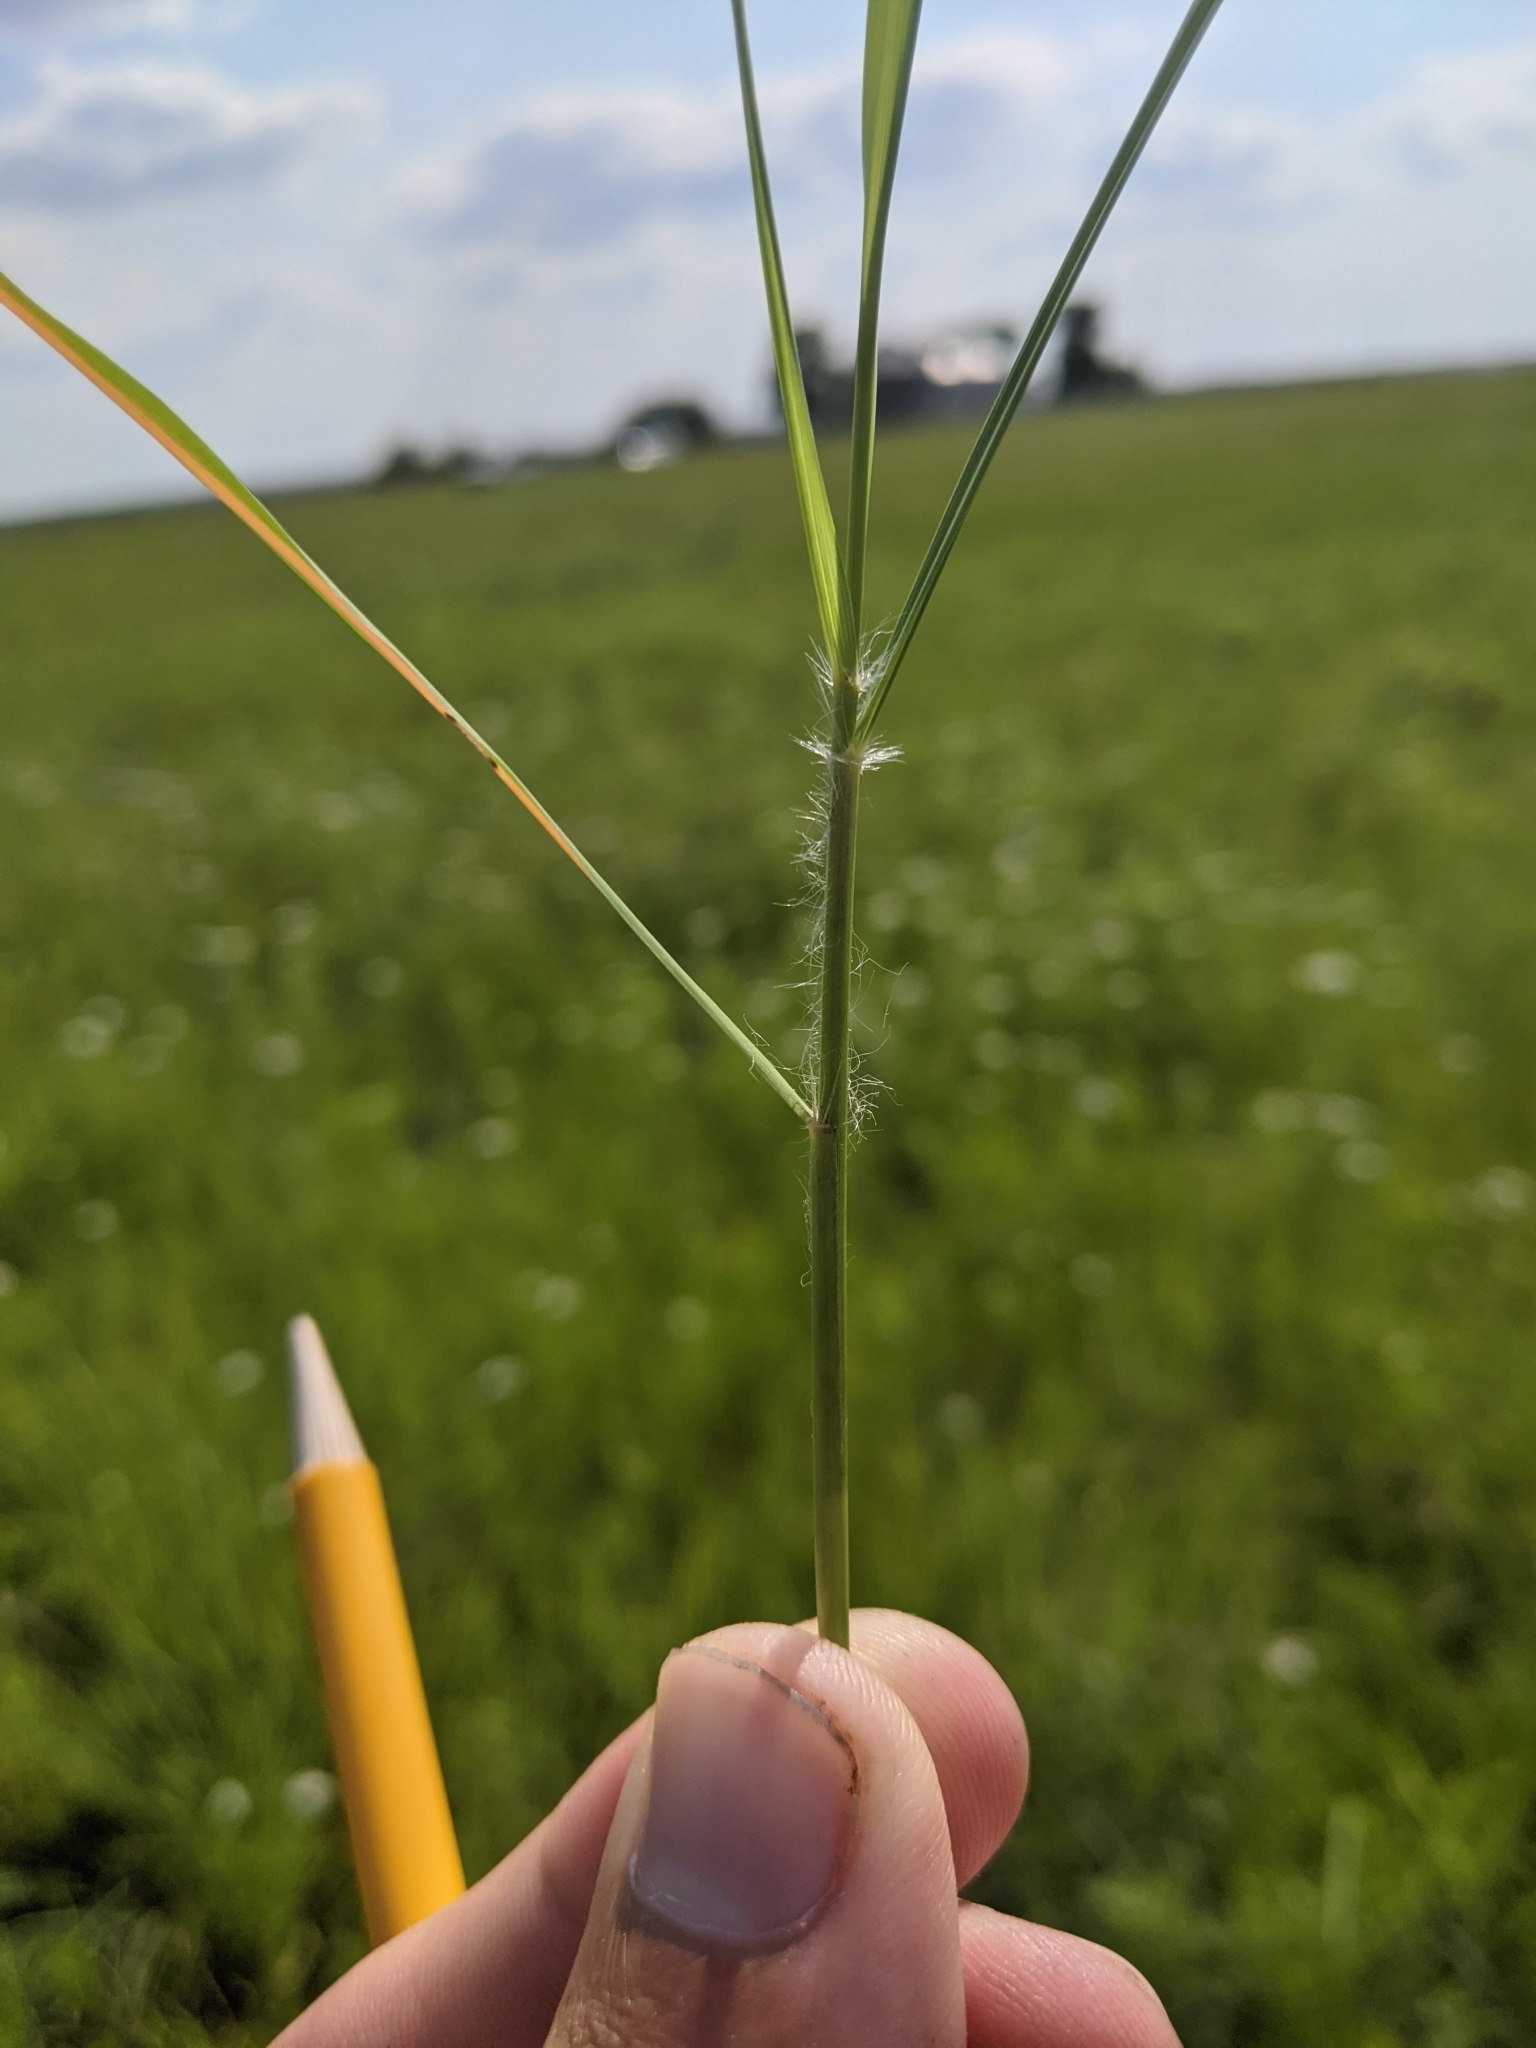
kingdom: Plantae
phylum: Tracheophyta
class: Liliopsida
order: Poales
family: Poaceae
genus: Eragrostis
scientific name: Eragrostis spectabilis
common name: Petticoat-climber
